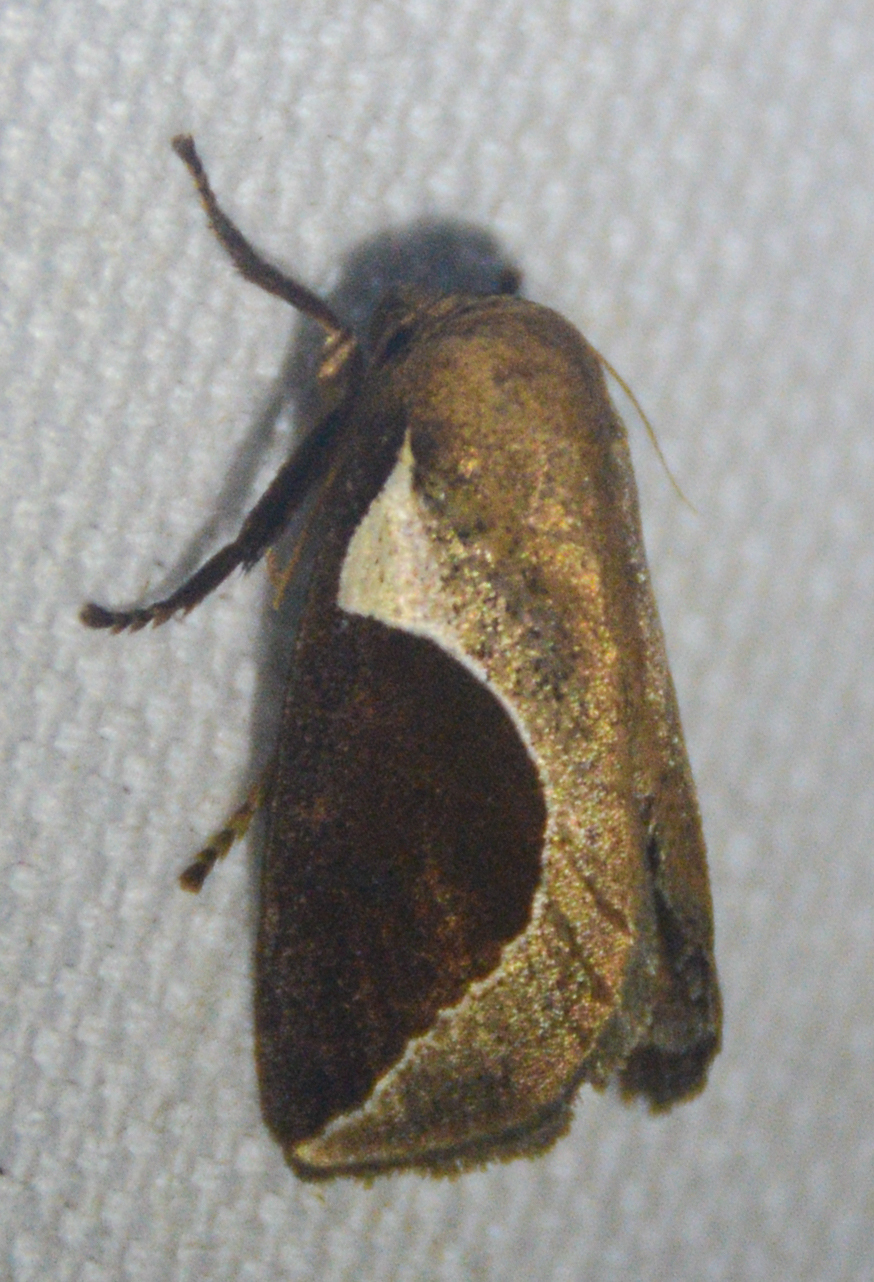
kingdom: Animalia
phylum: Arthropoda
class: Insecta
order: Lepidoptera
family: Limacodidae
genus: Prolimacodes
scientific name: Prolimacodes badia
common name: Skiff moth
